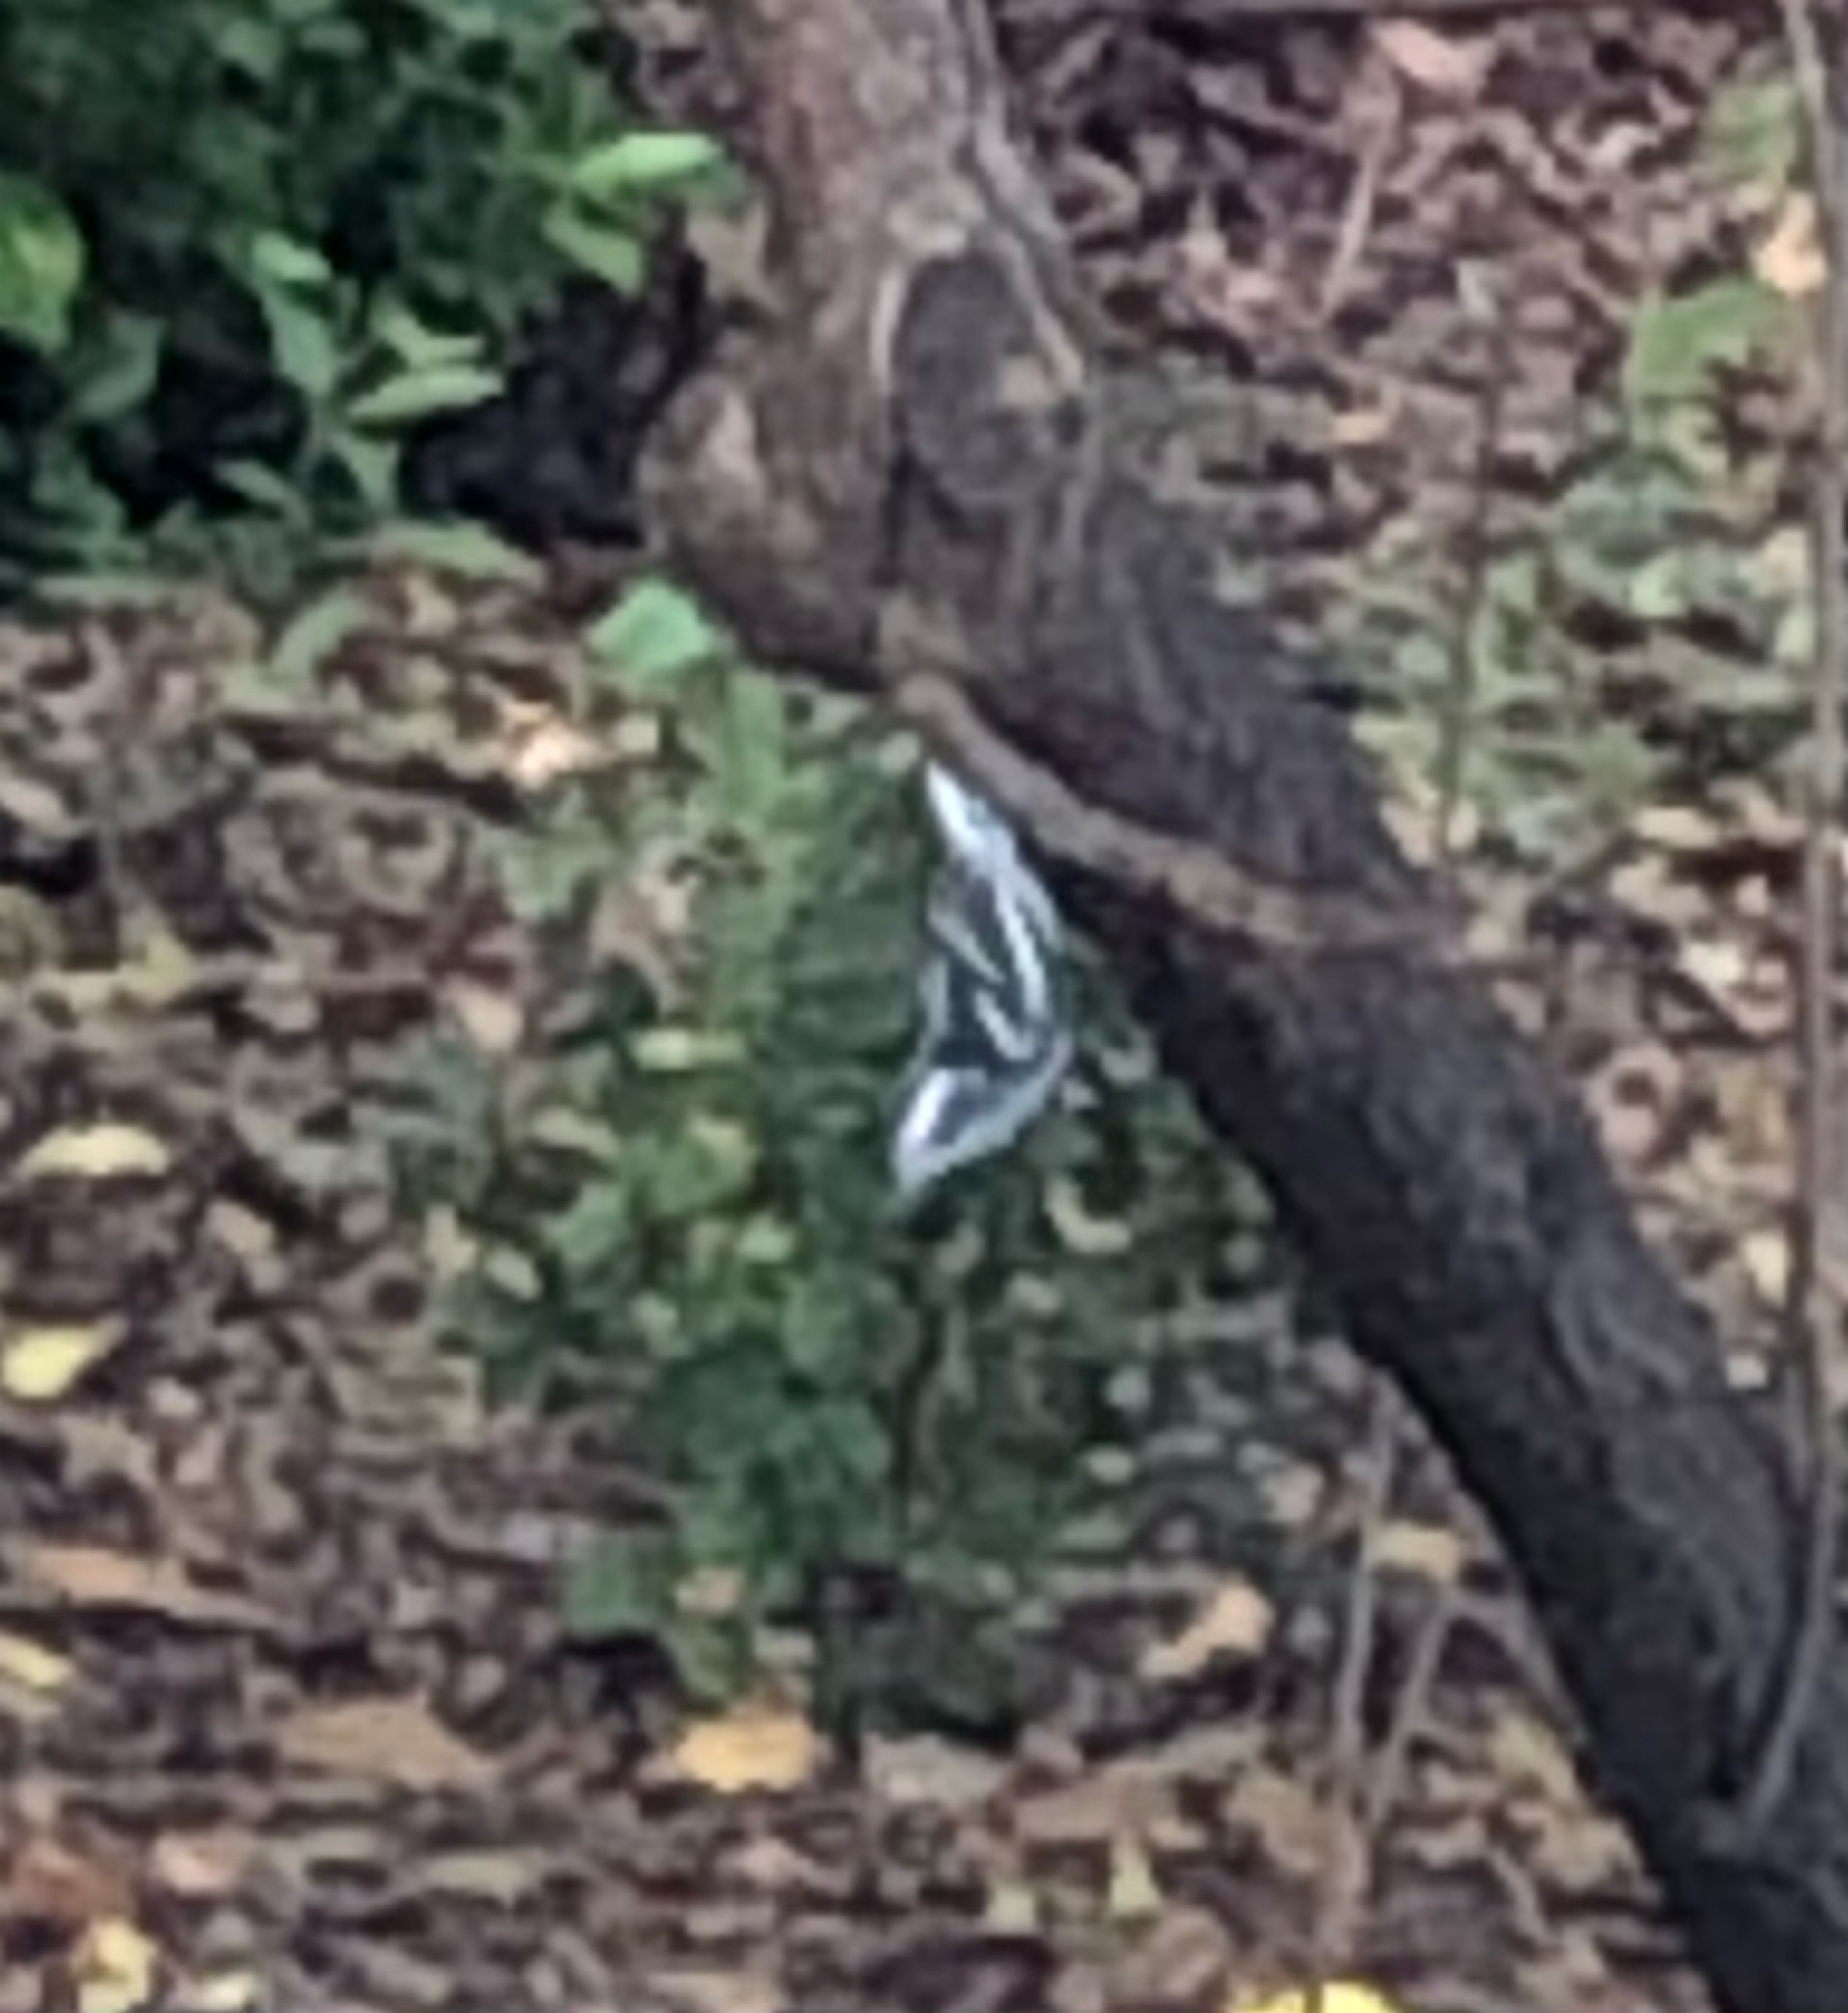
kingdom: Animalia
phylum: Chordata
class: Aves
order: Passeriformes
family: Parulidae
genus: Mniotilta
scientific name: Mniotilta varia
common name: Black-and-white warbler
